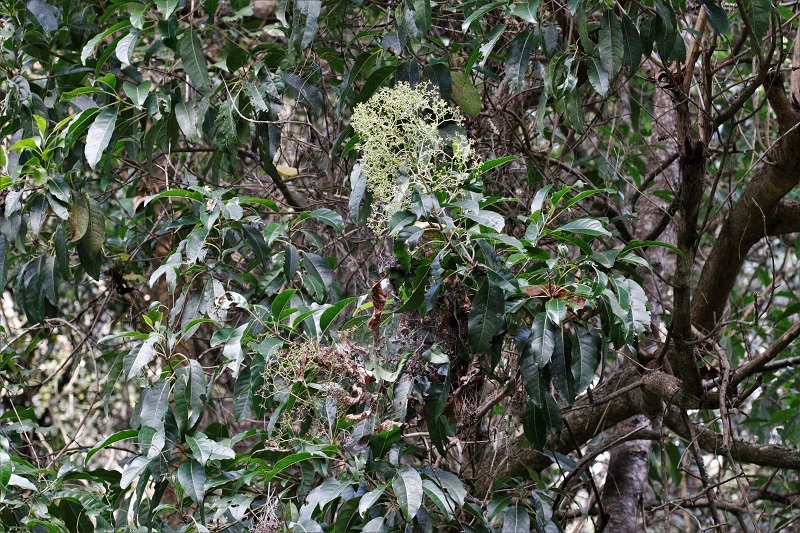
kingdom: Plantae
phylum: Tracheophyta
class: Magnoliopsida
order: Lamiales
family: Stilbaceae
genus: Nuxia
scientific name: Nuxia floribunda
